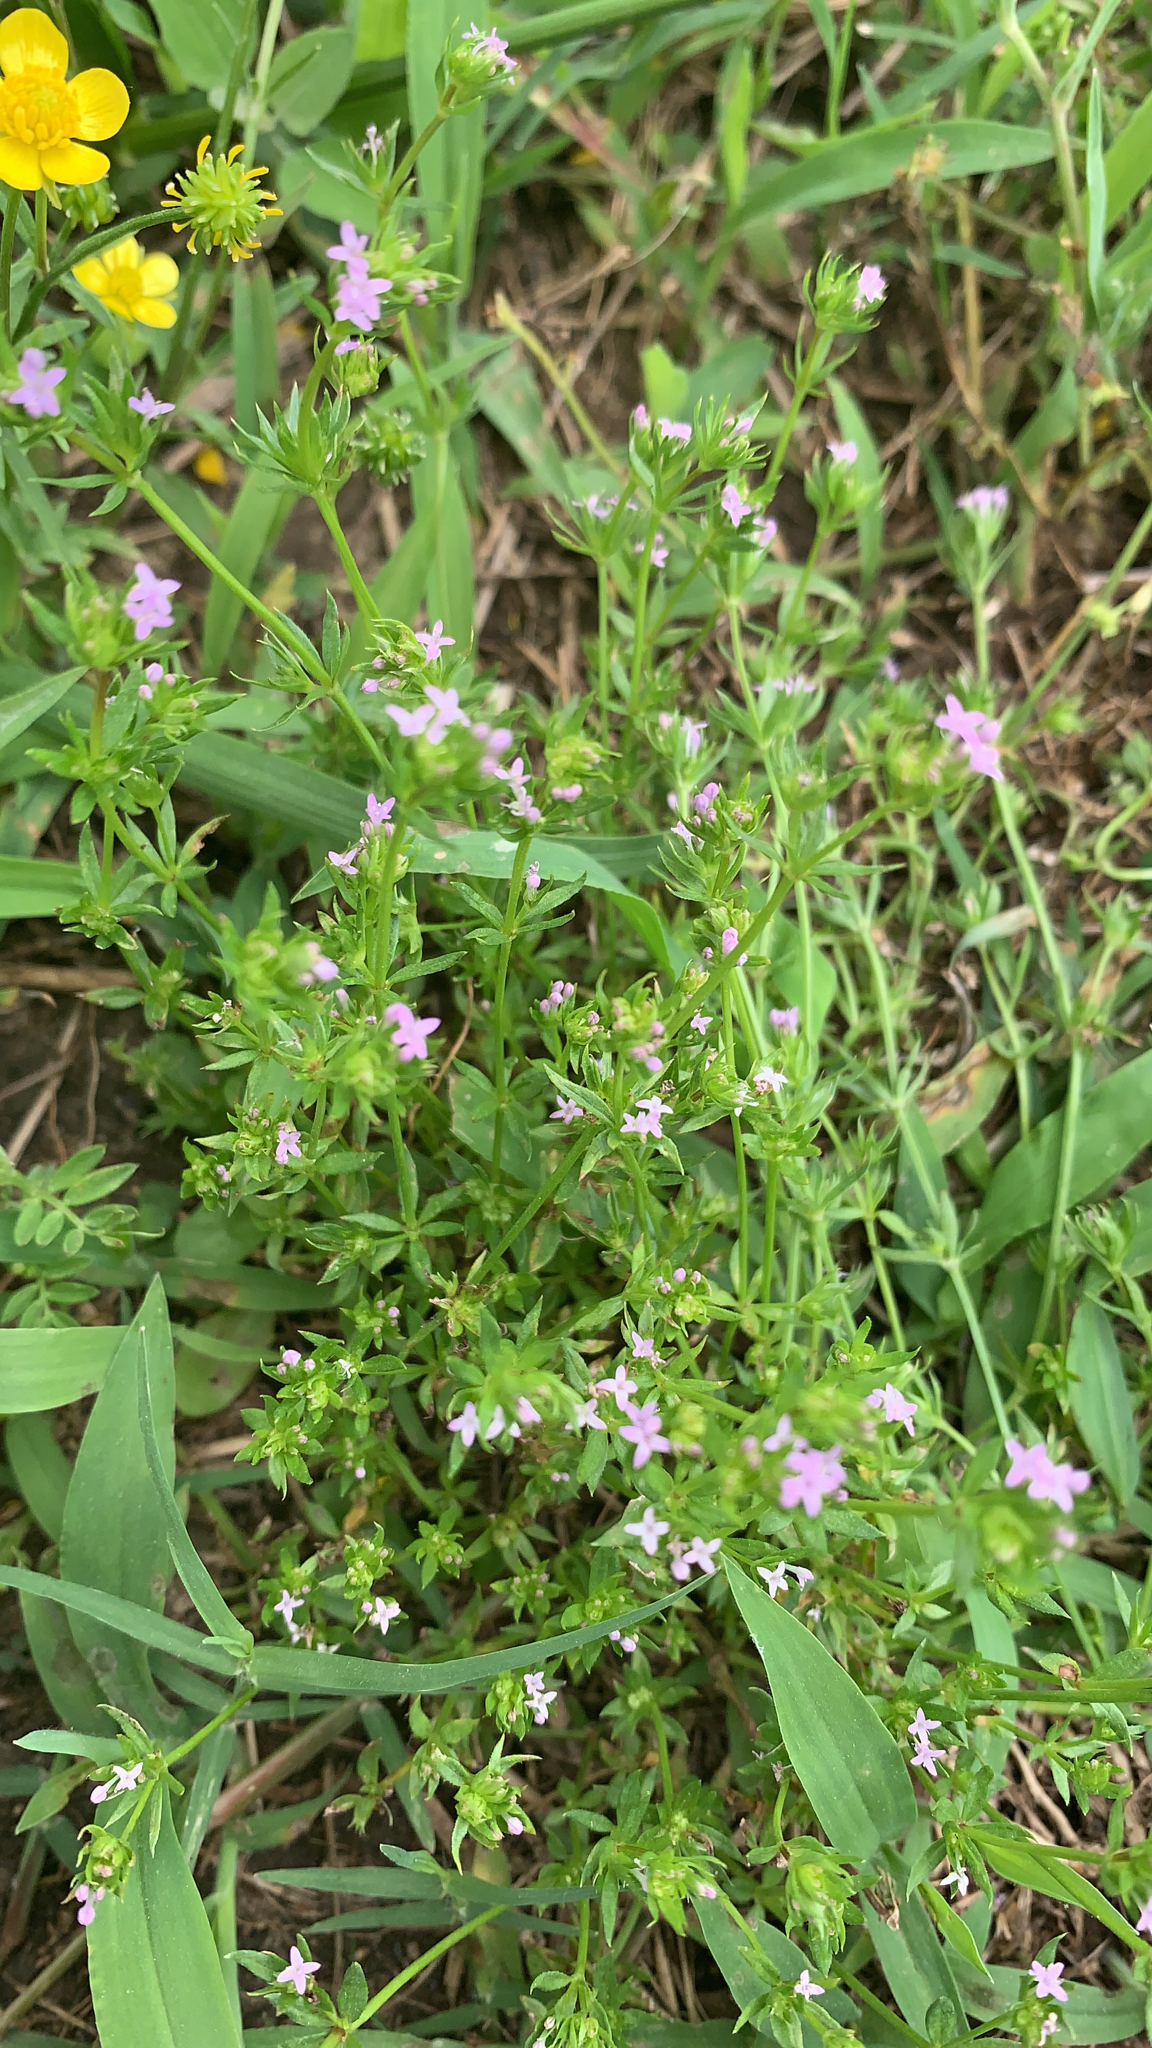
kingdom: Plantae
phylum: Tracheophyta
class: Magnoliopsida
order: Gentianales
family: Rubiaceae
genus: Sherardia
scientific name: Sherardia arvensis
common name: Field madder
